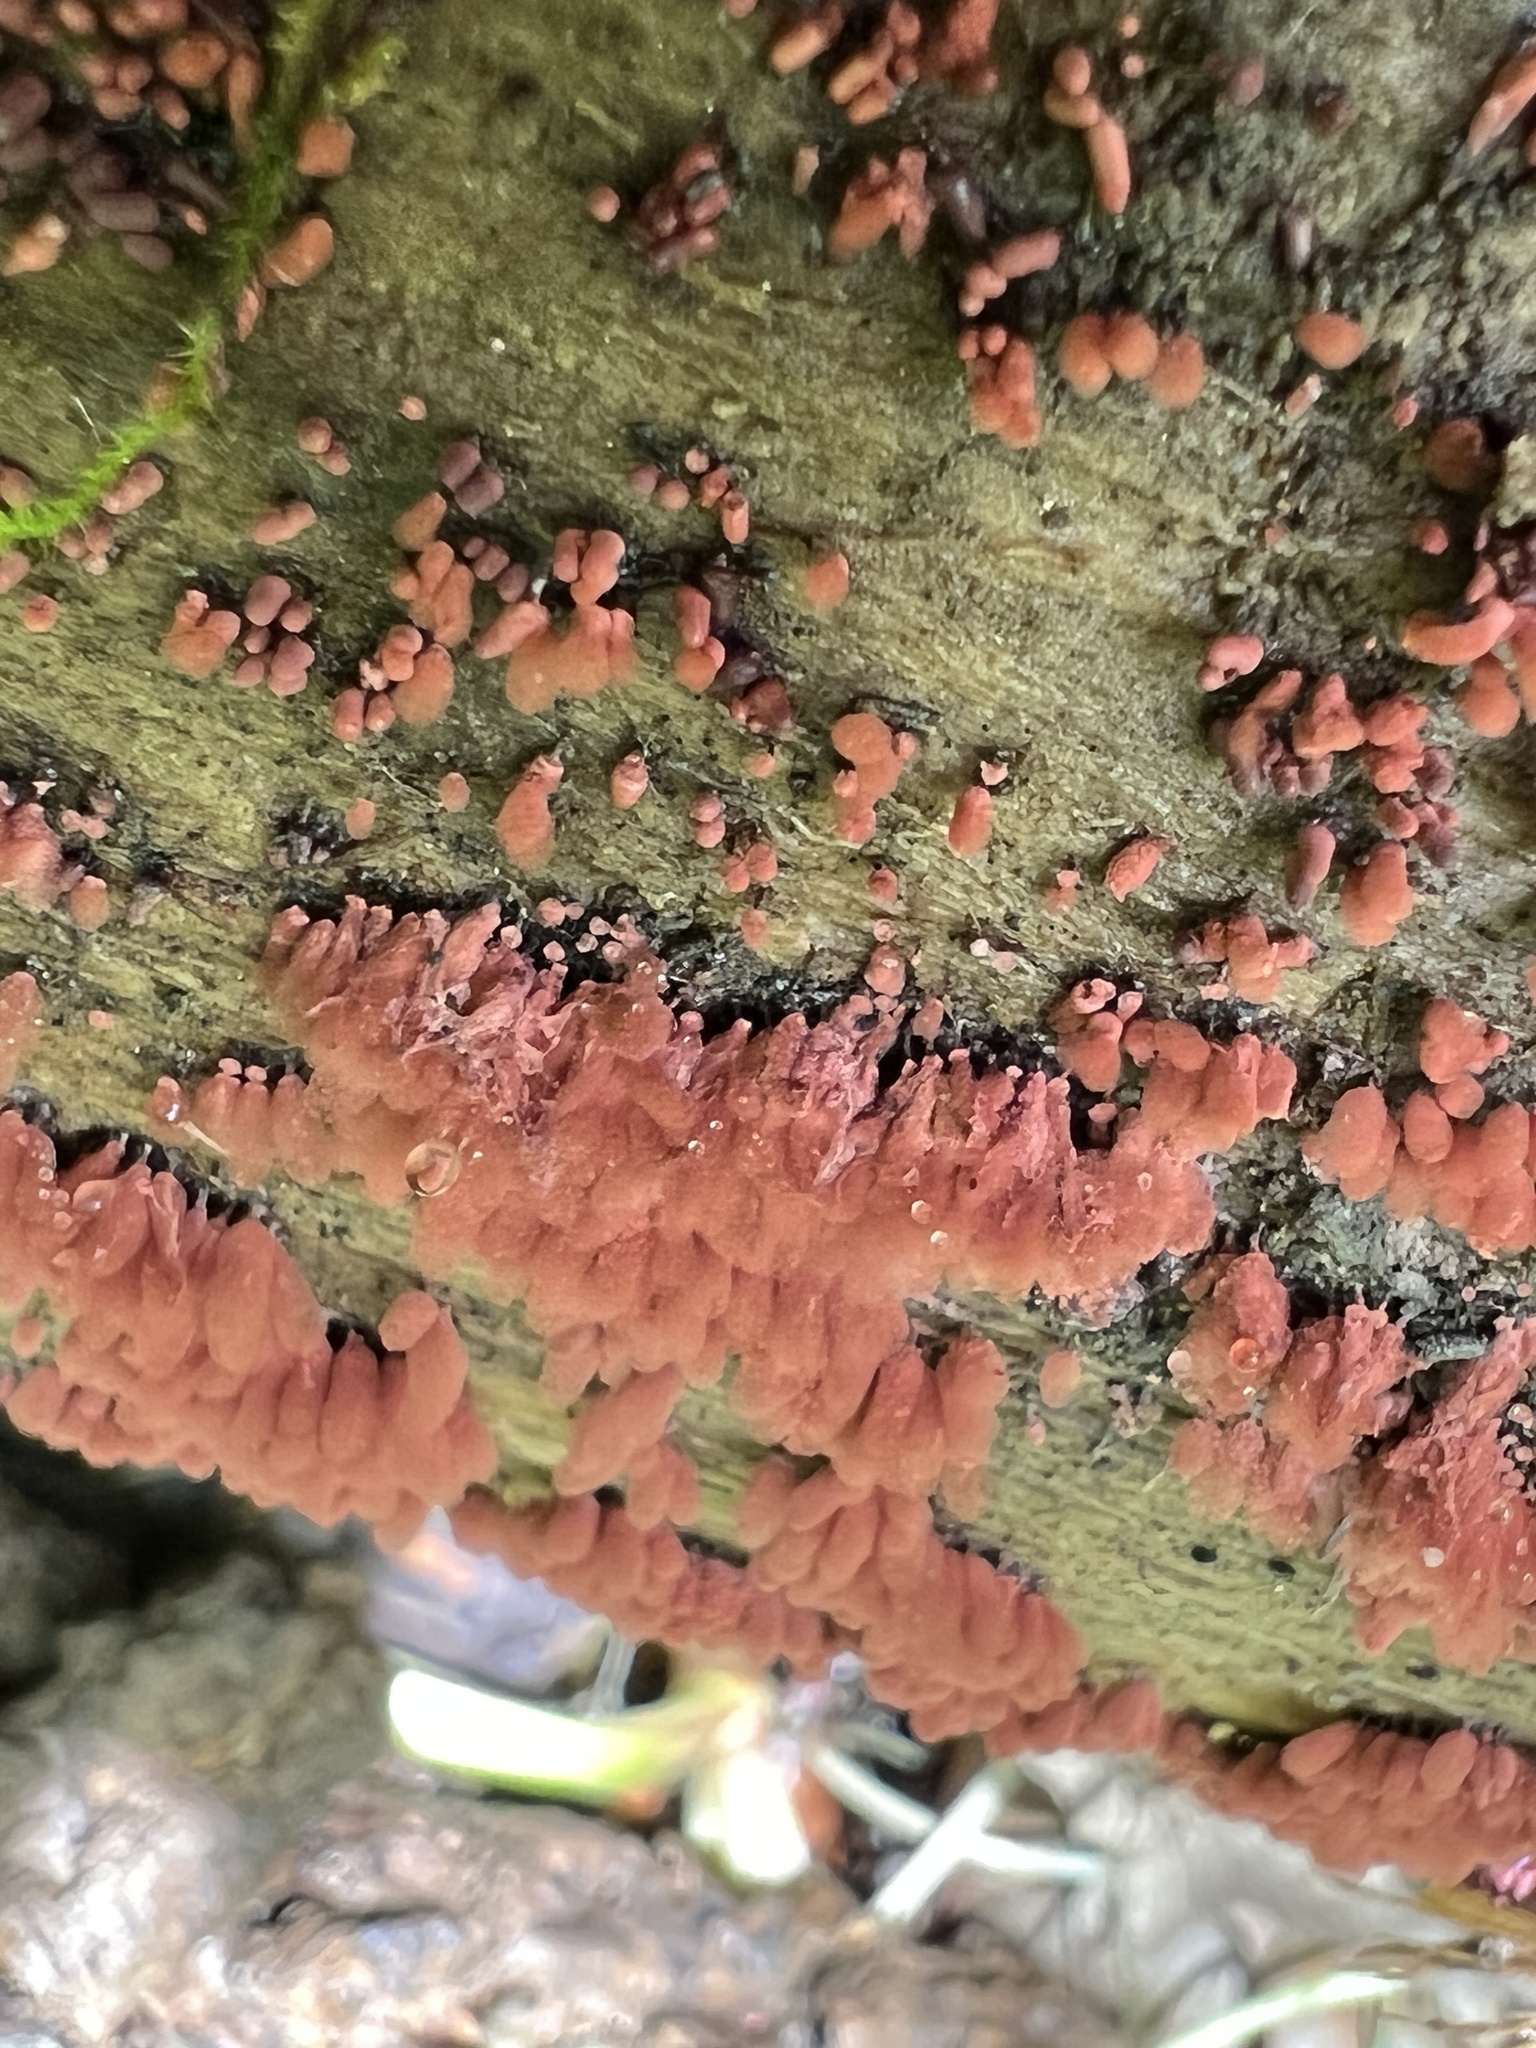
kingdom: Protozoa
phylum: Mycetozoa
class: Myxomycetes
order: Trichiales
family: Arcyriaceae
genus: Arcyria
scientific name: Arcyria denudata
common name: Carnival candy slime mold
